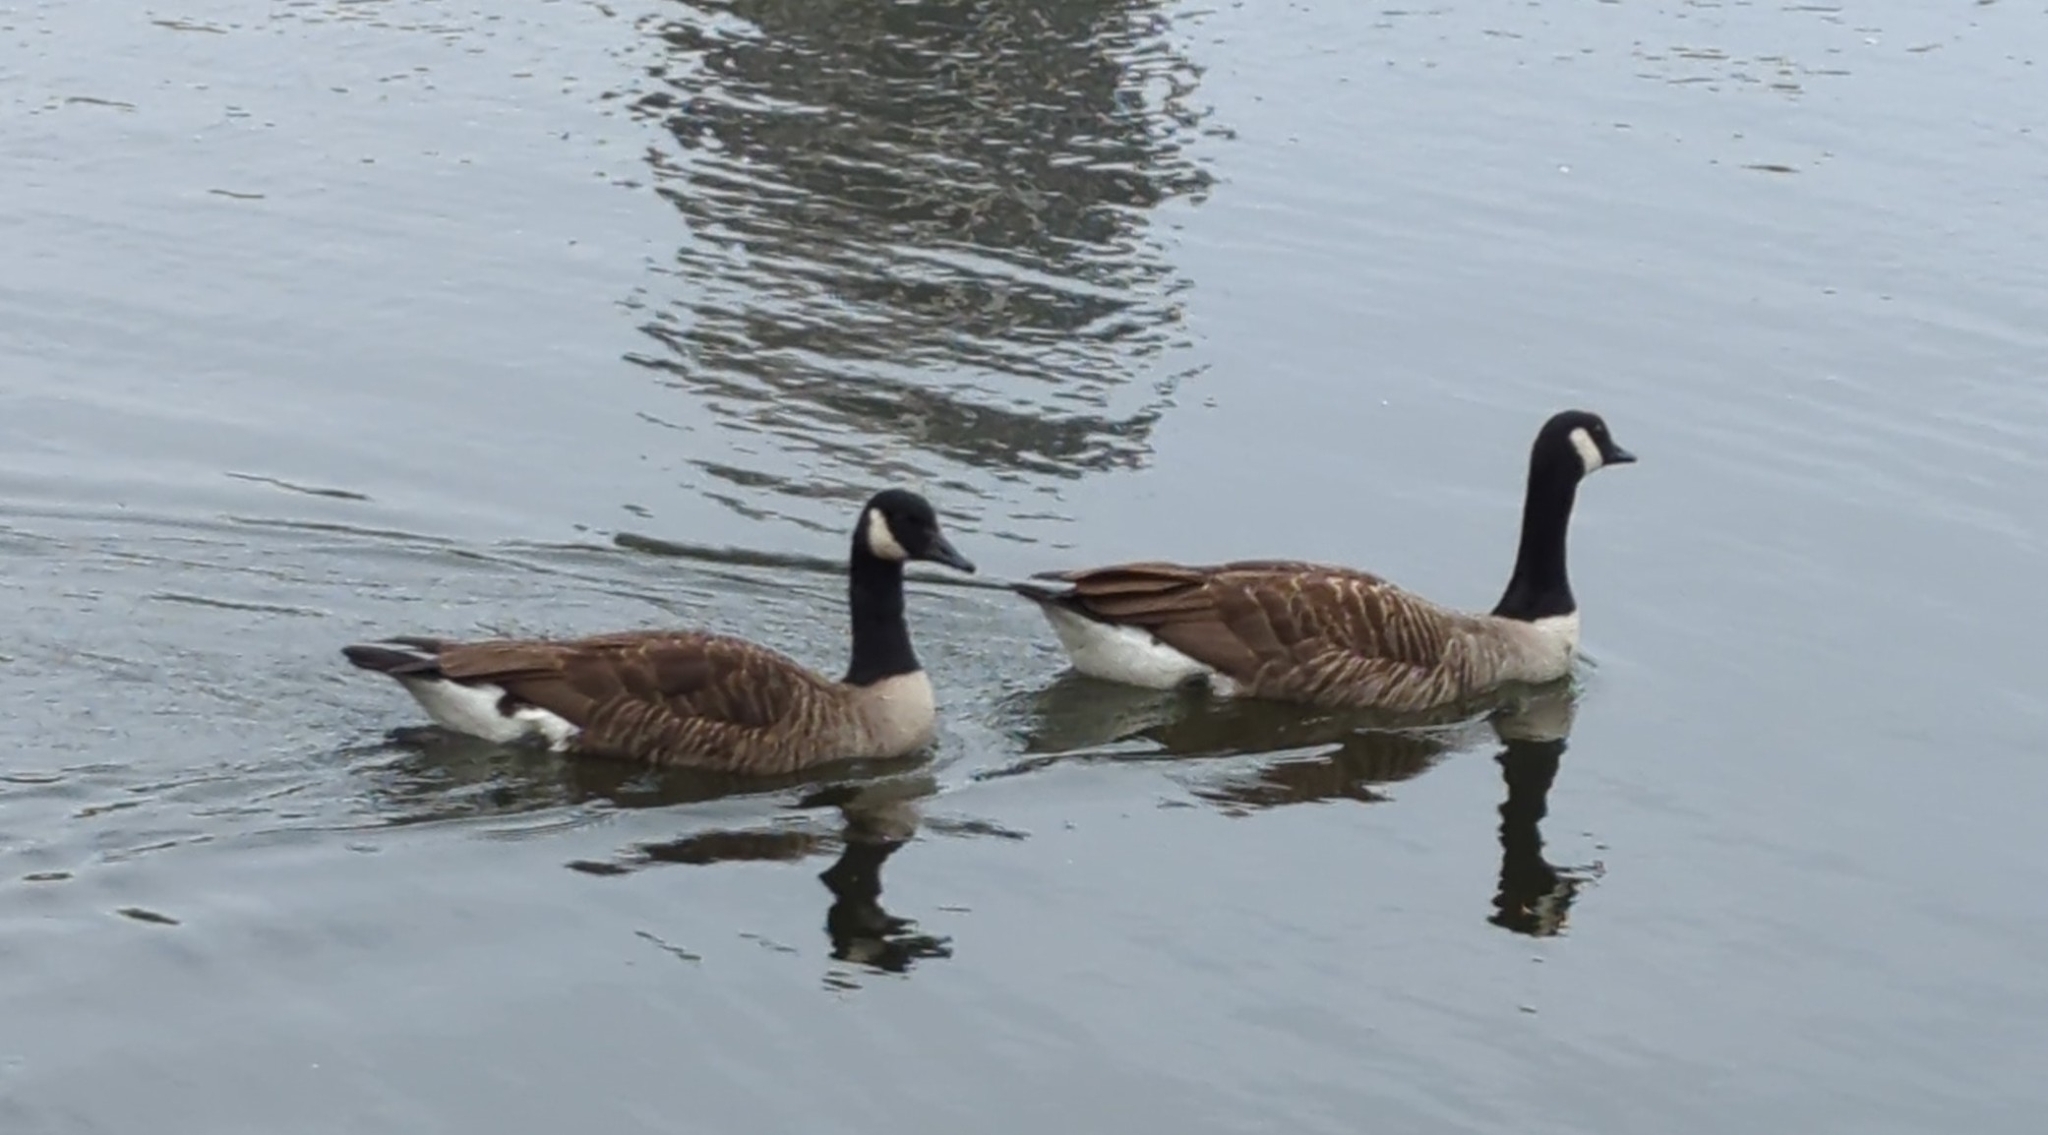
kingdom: Animalia
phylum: Chordata
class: Aves
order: Anseriformes
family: Anatidae
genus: Branta
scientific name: Branta canadensis
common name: Canada goose
